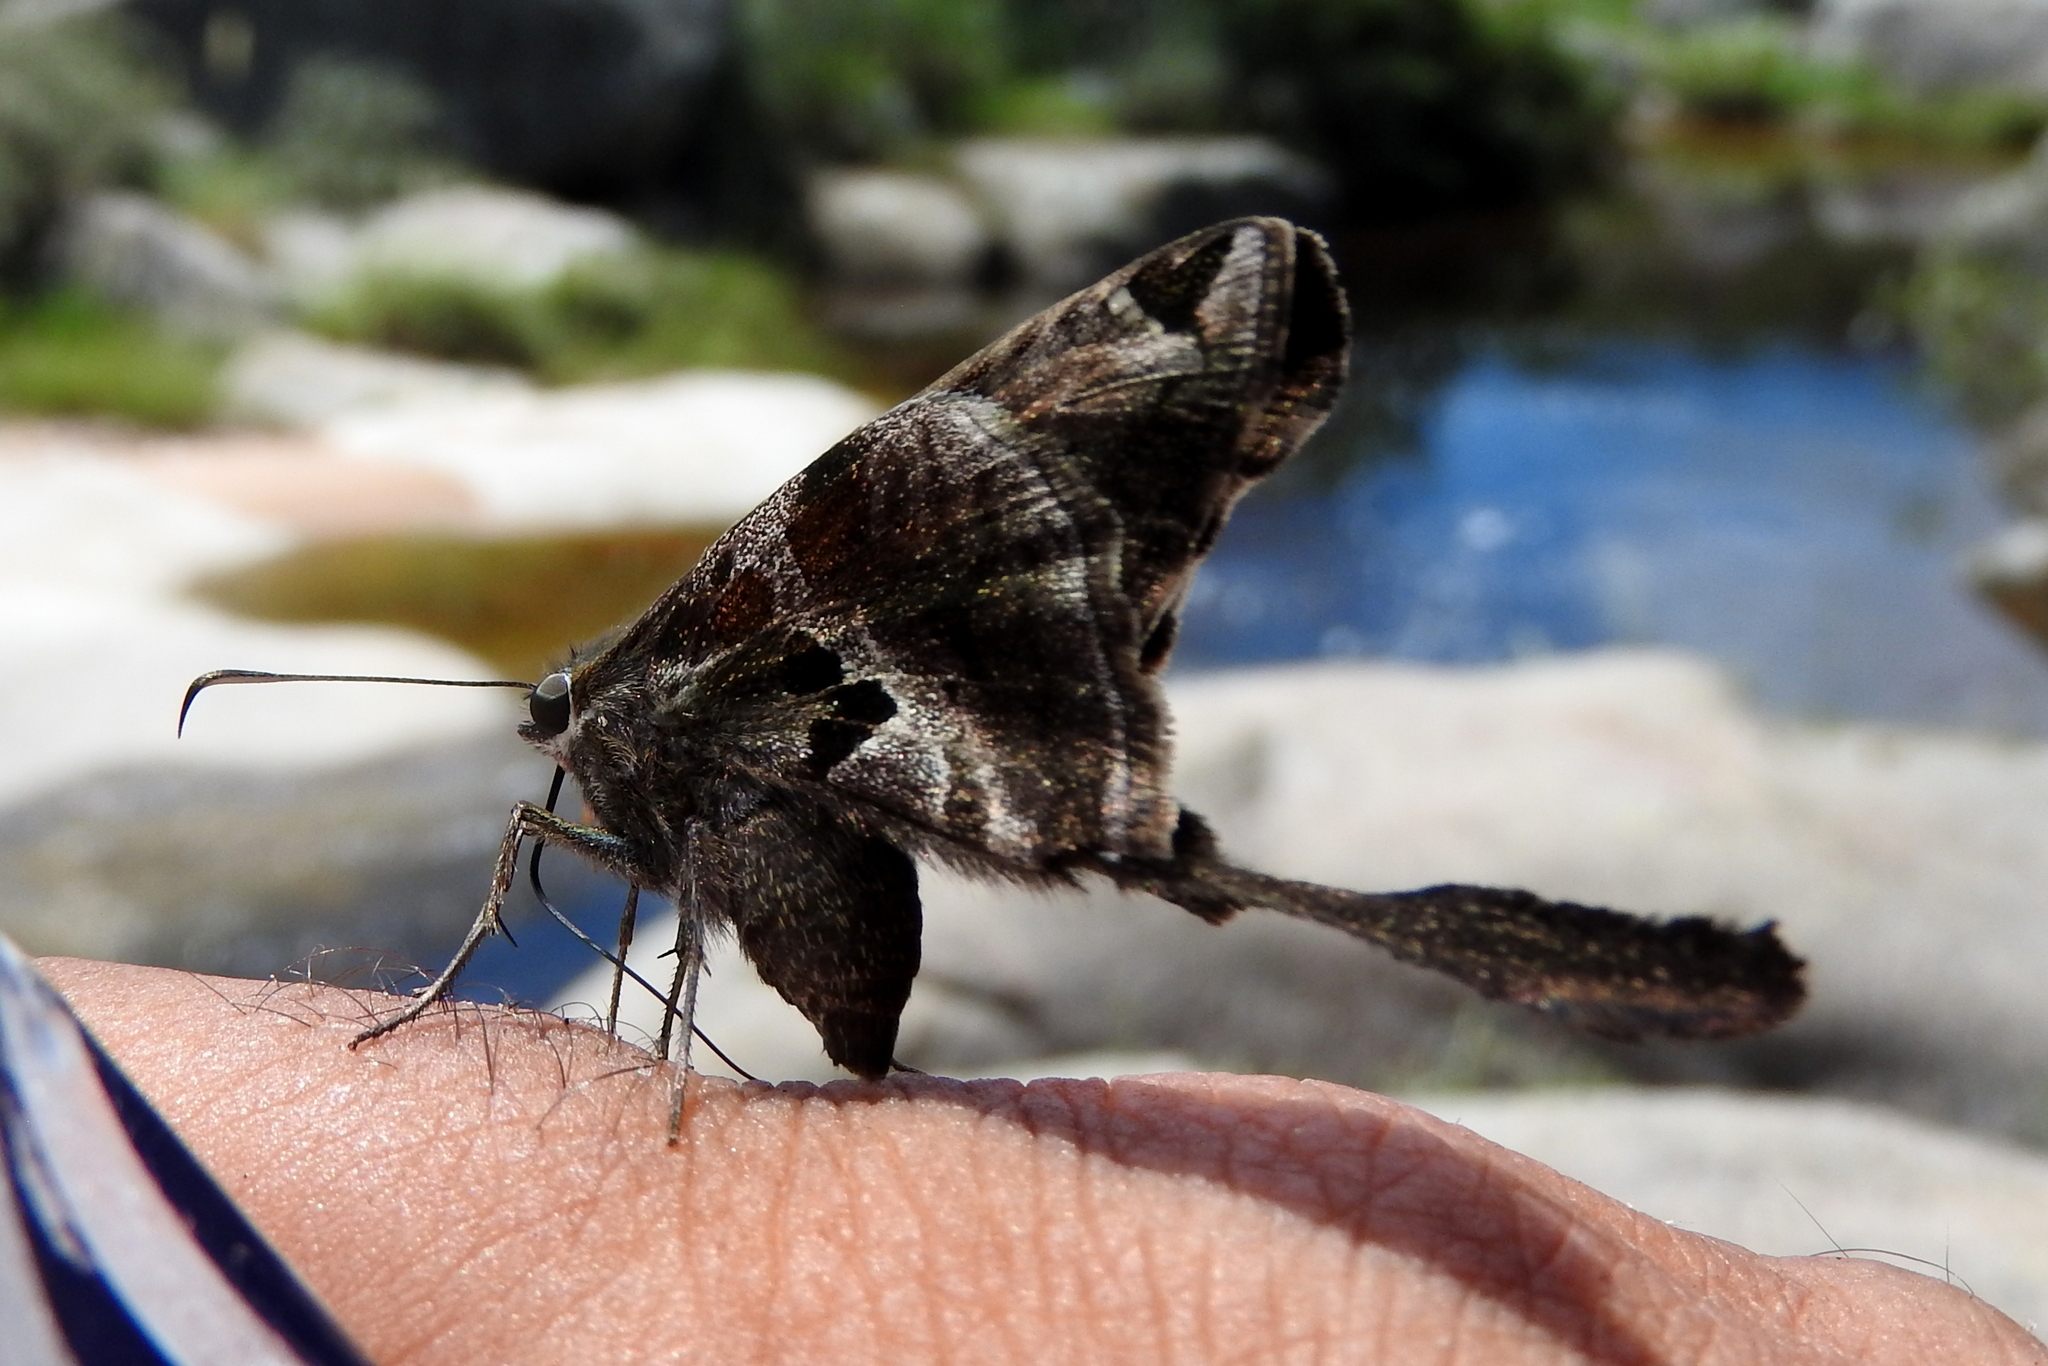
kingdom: Animalia
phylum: Arthropoda
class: Insecta
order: Lepidoptera
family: Hesperiidae
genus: Chioides
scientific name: Chioides catillus
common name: Silverbanded skipper
